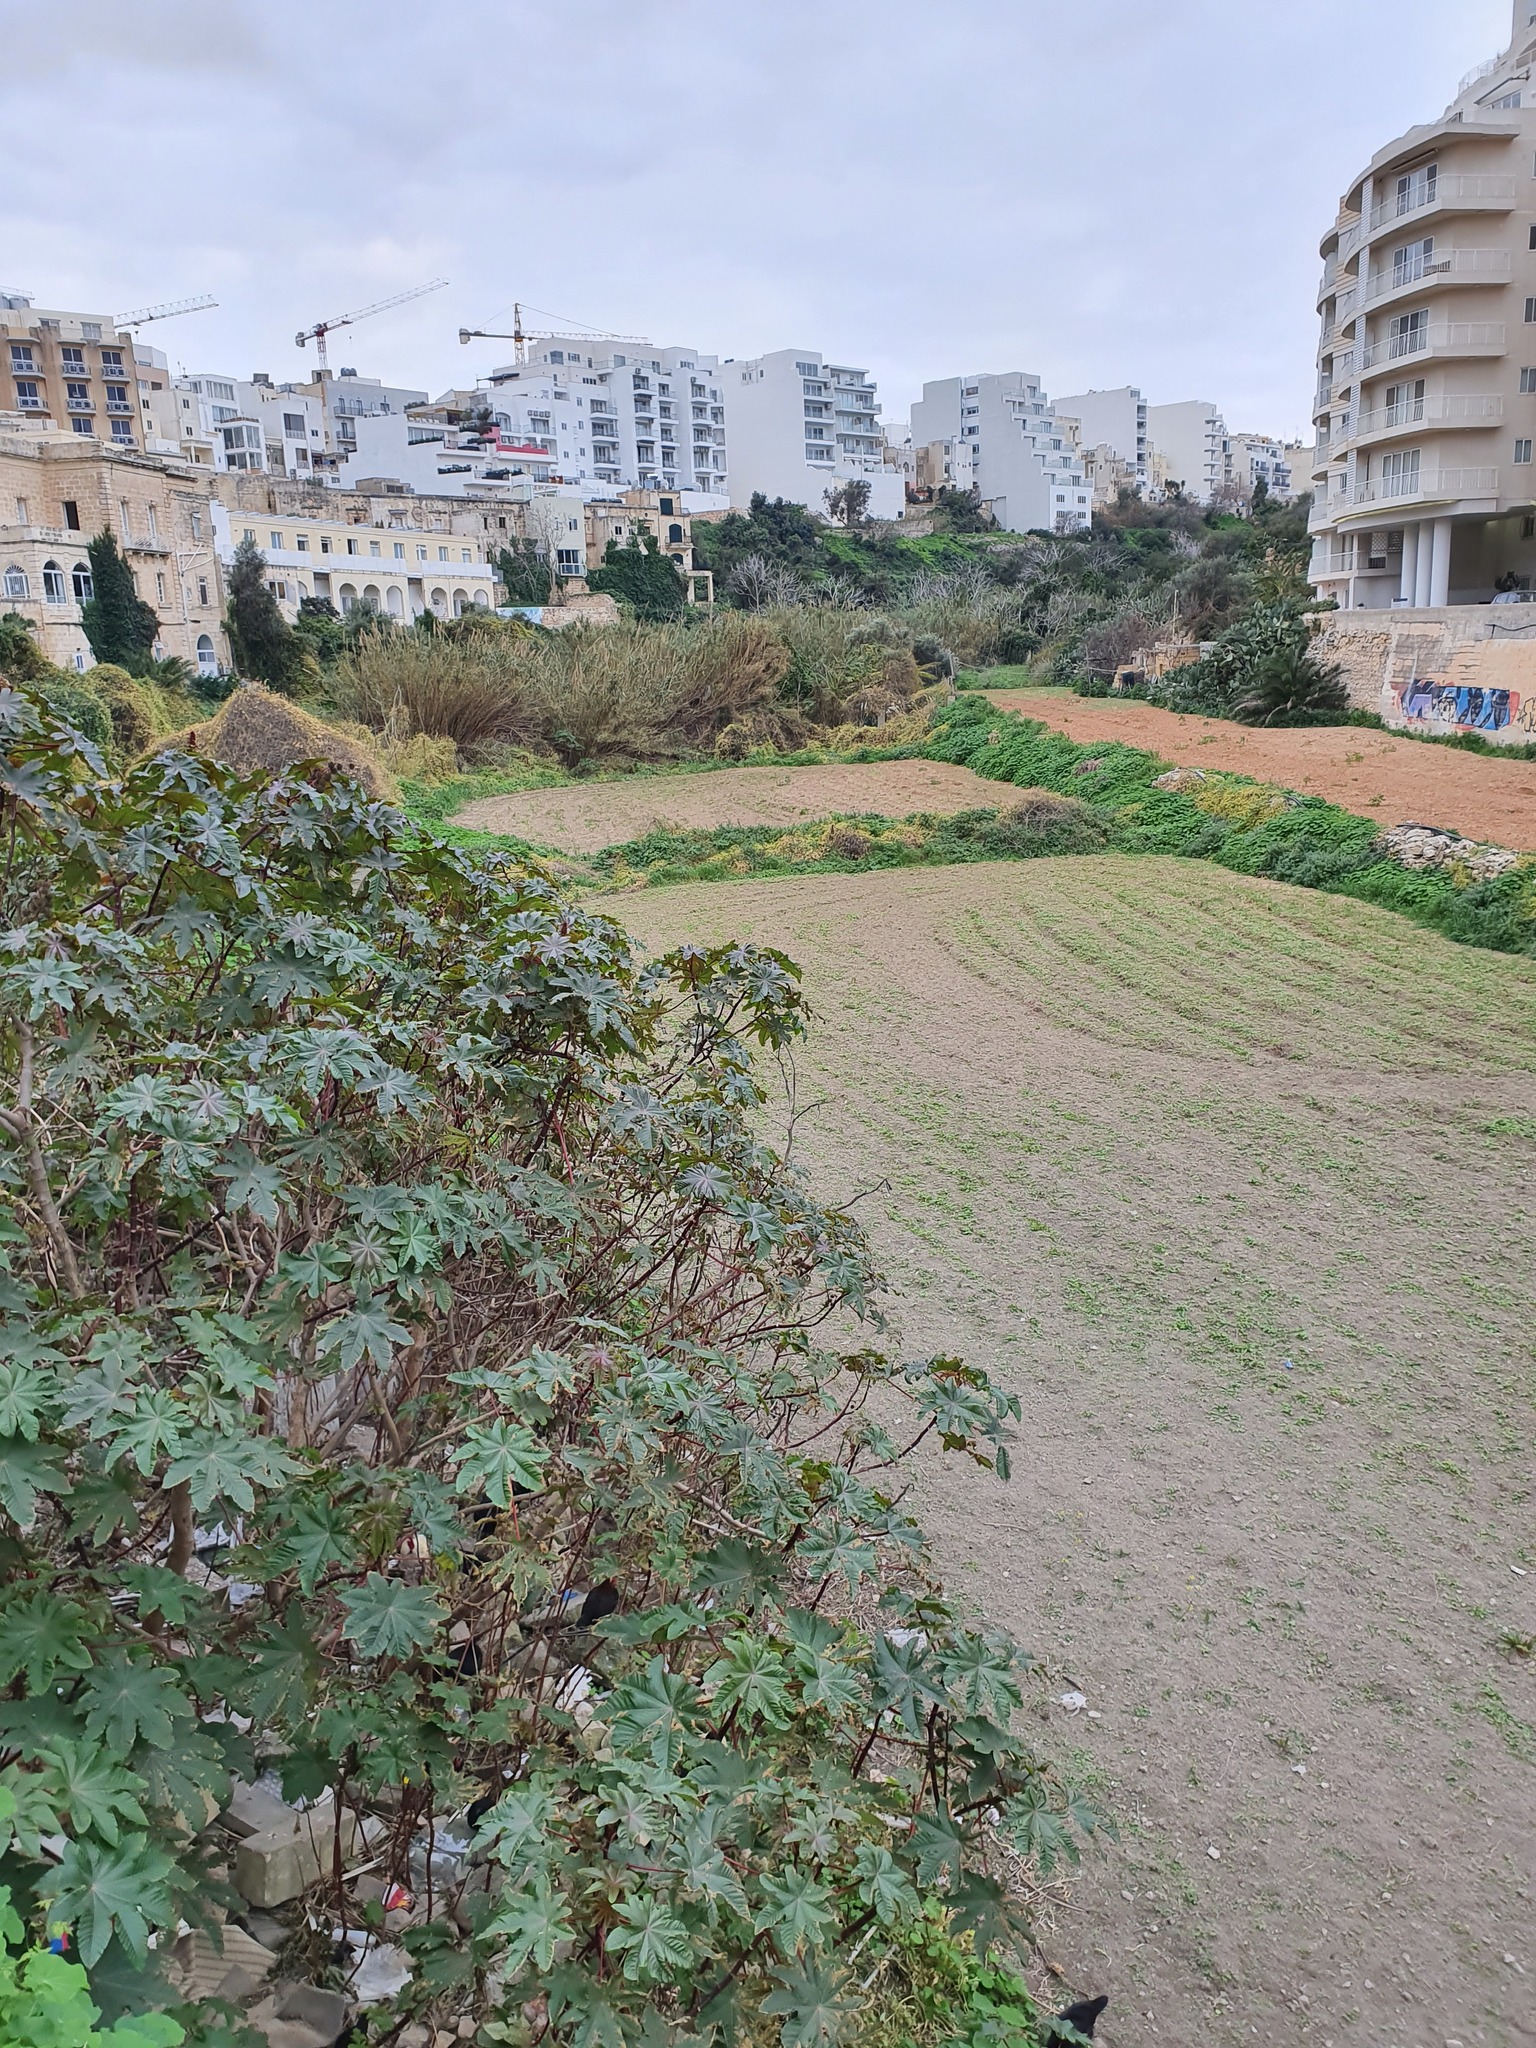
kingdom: Plantae
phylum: Tracheophyta
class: Magnoliopsida
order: Malpighiales
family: Euphorbiaceae
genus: Ricinus
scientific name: Ricinus communis
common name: Castor-oil-plant
